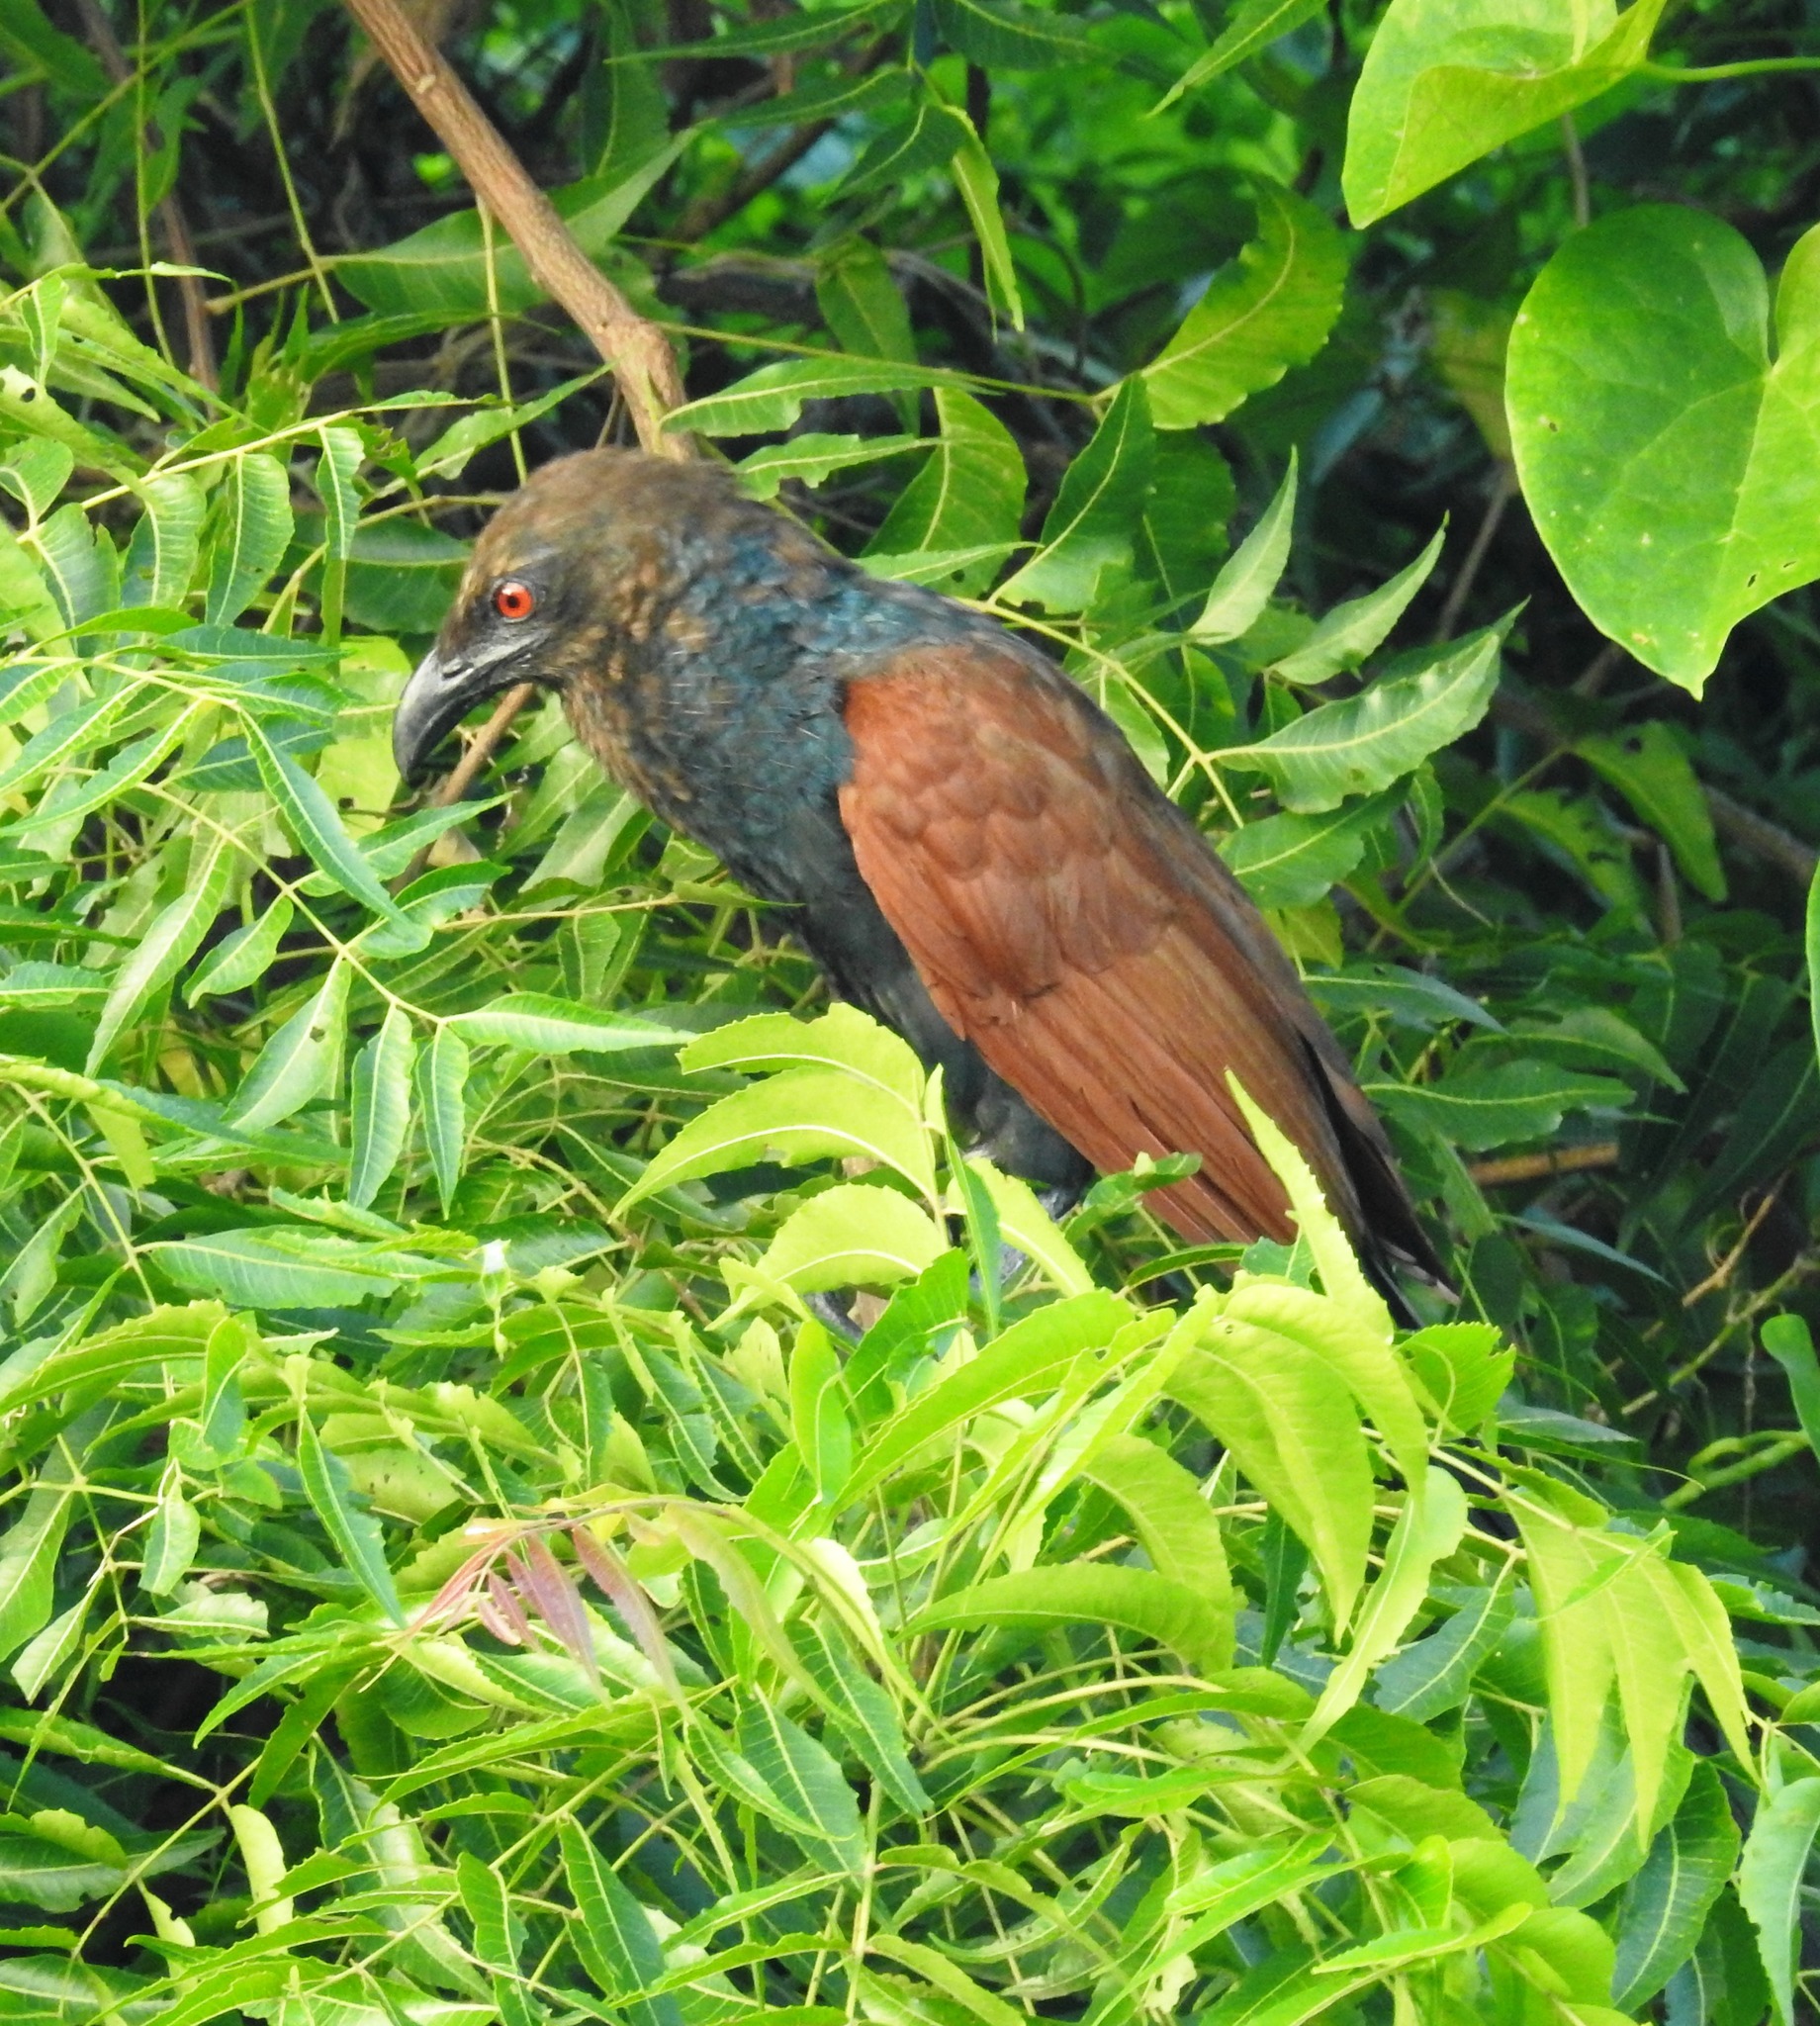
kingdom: Animalia
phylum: Chordata
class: Aves
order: Cuculiformes
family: Cuculidae
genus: Centropus
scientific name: Centropus sinensis
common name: Greater coucal
